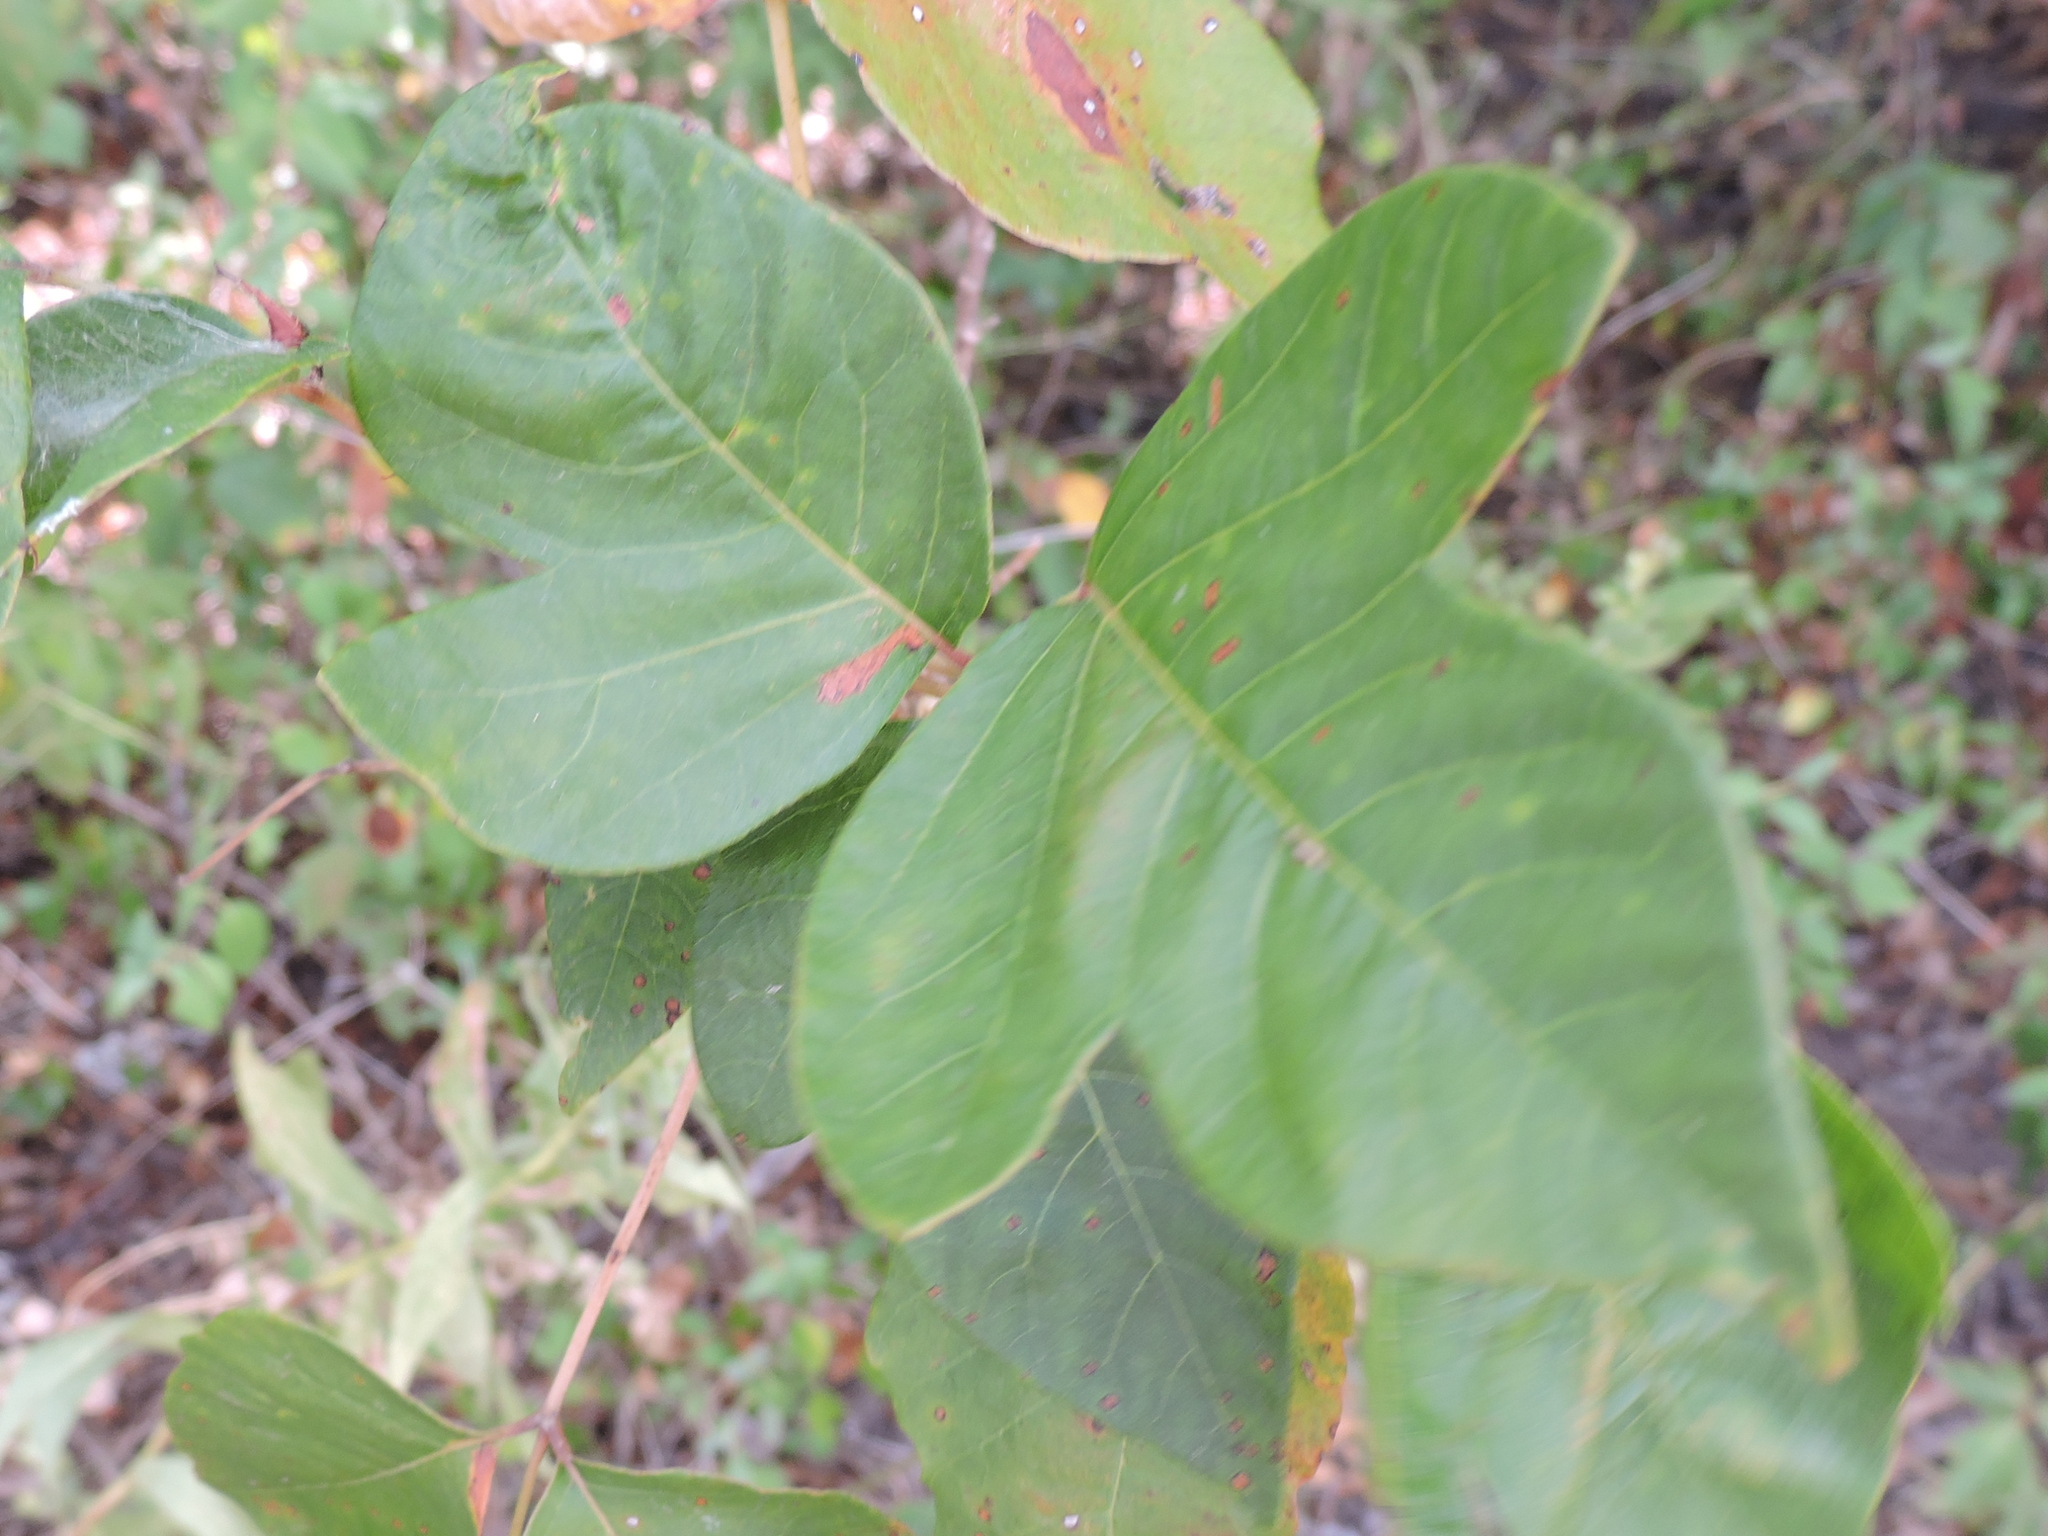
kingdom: Plantae
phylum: Tracheophyta
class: Magnoliopsida
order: Sapindales
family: Anacardiaceae
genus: Toxicodendron
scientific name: Toxicodendron radicans
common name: Poison ivy
